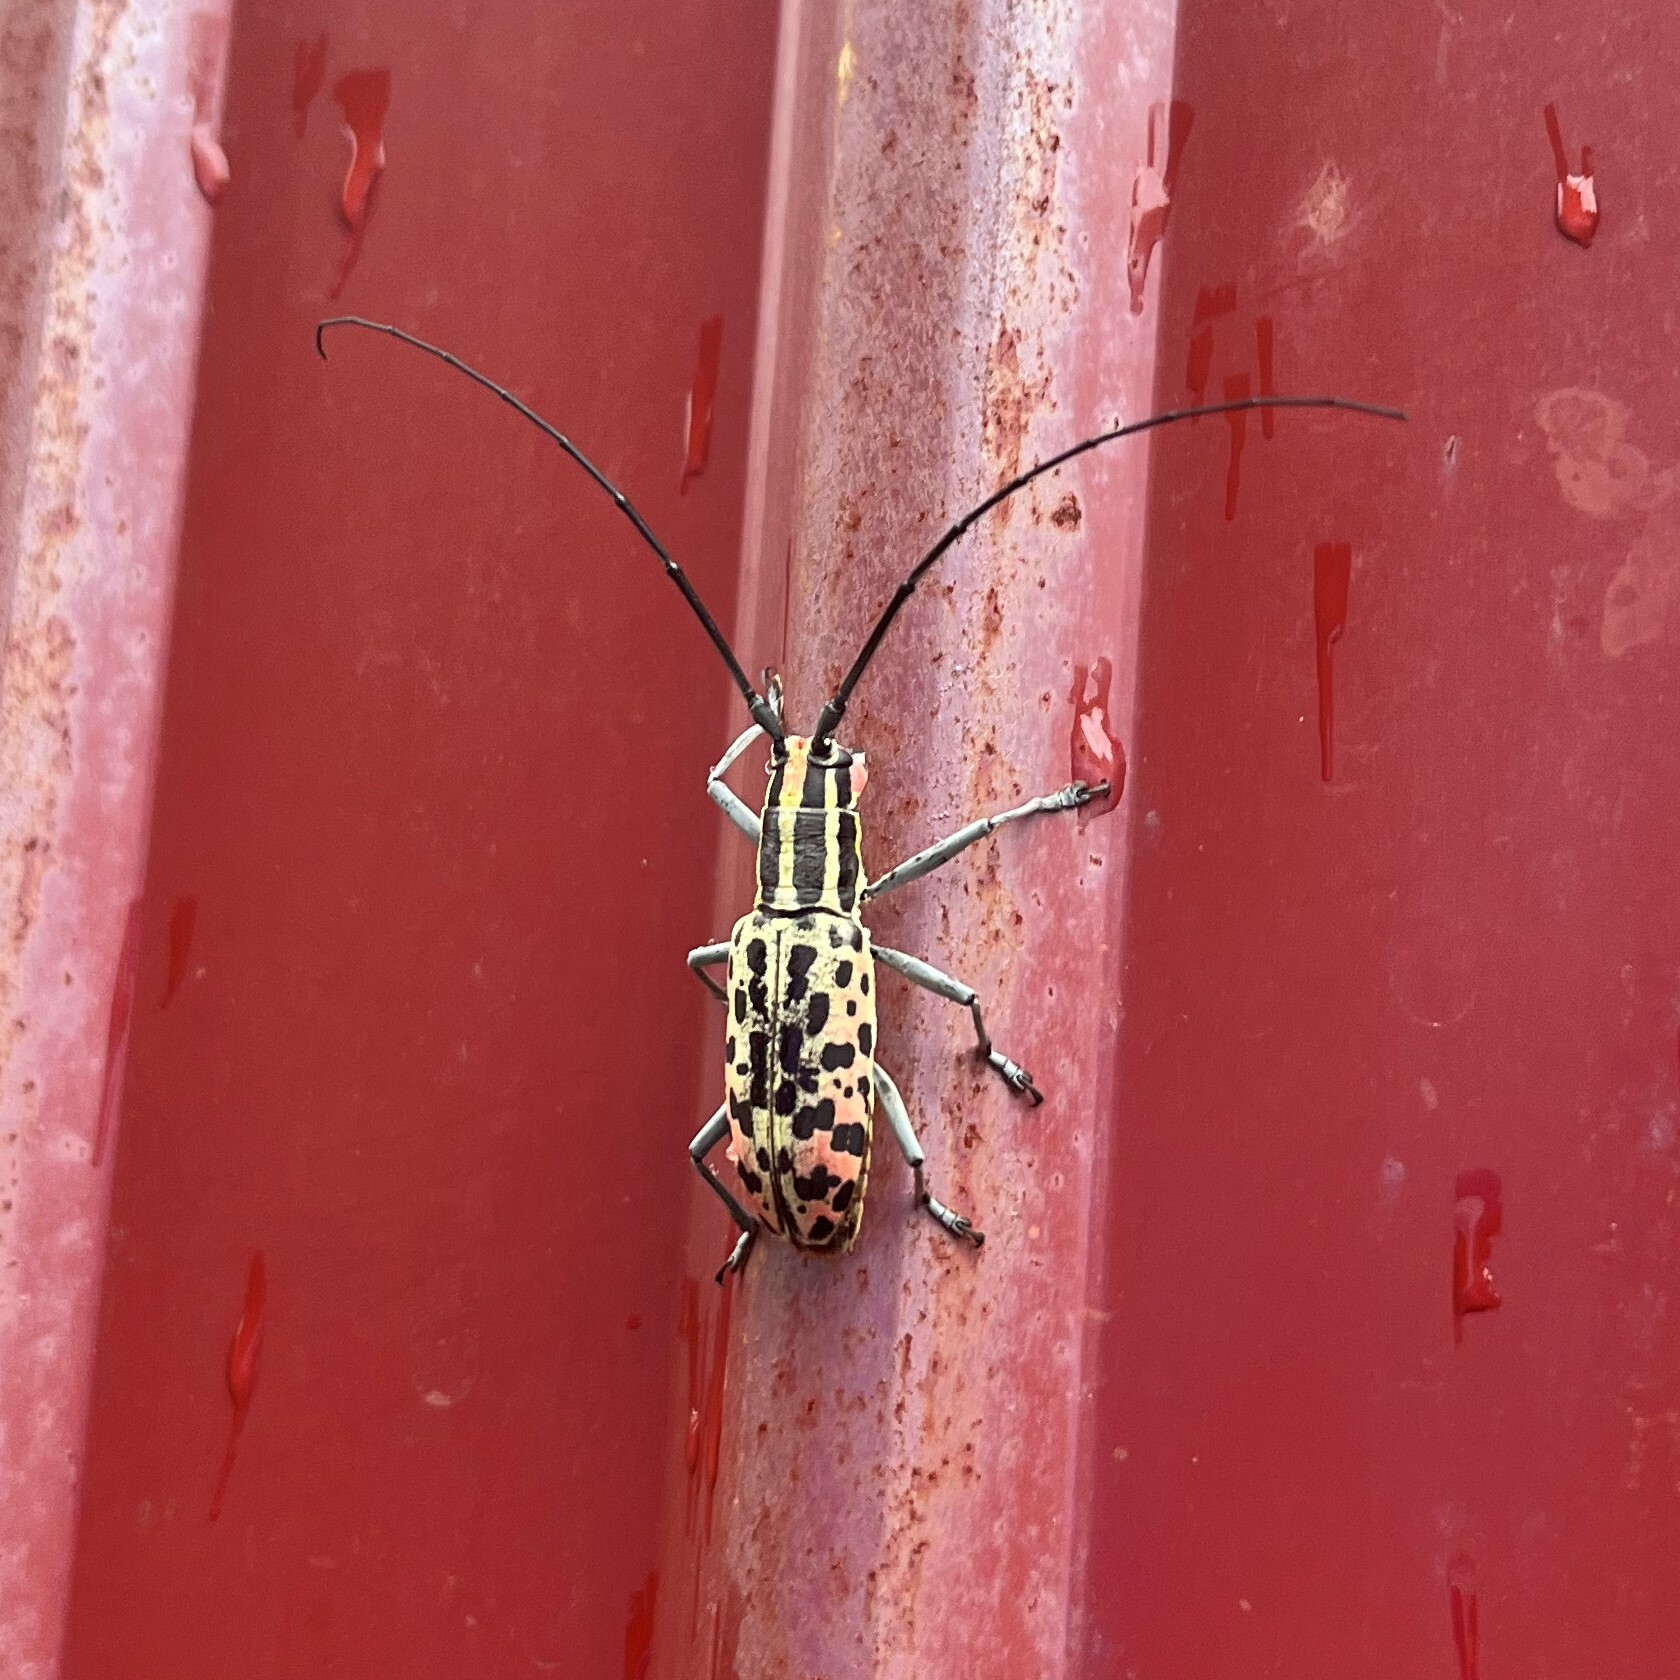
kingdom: Animalia
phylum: Arthropoda
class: Insecta
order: Coleoptera
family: Cerambycidae
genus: Macrochenus
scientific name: Macrochenus guerinii
